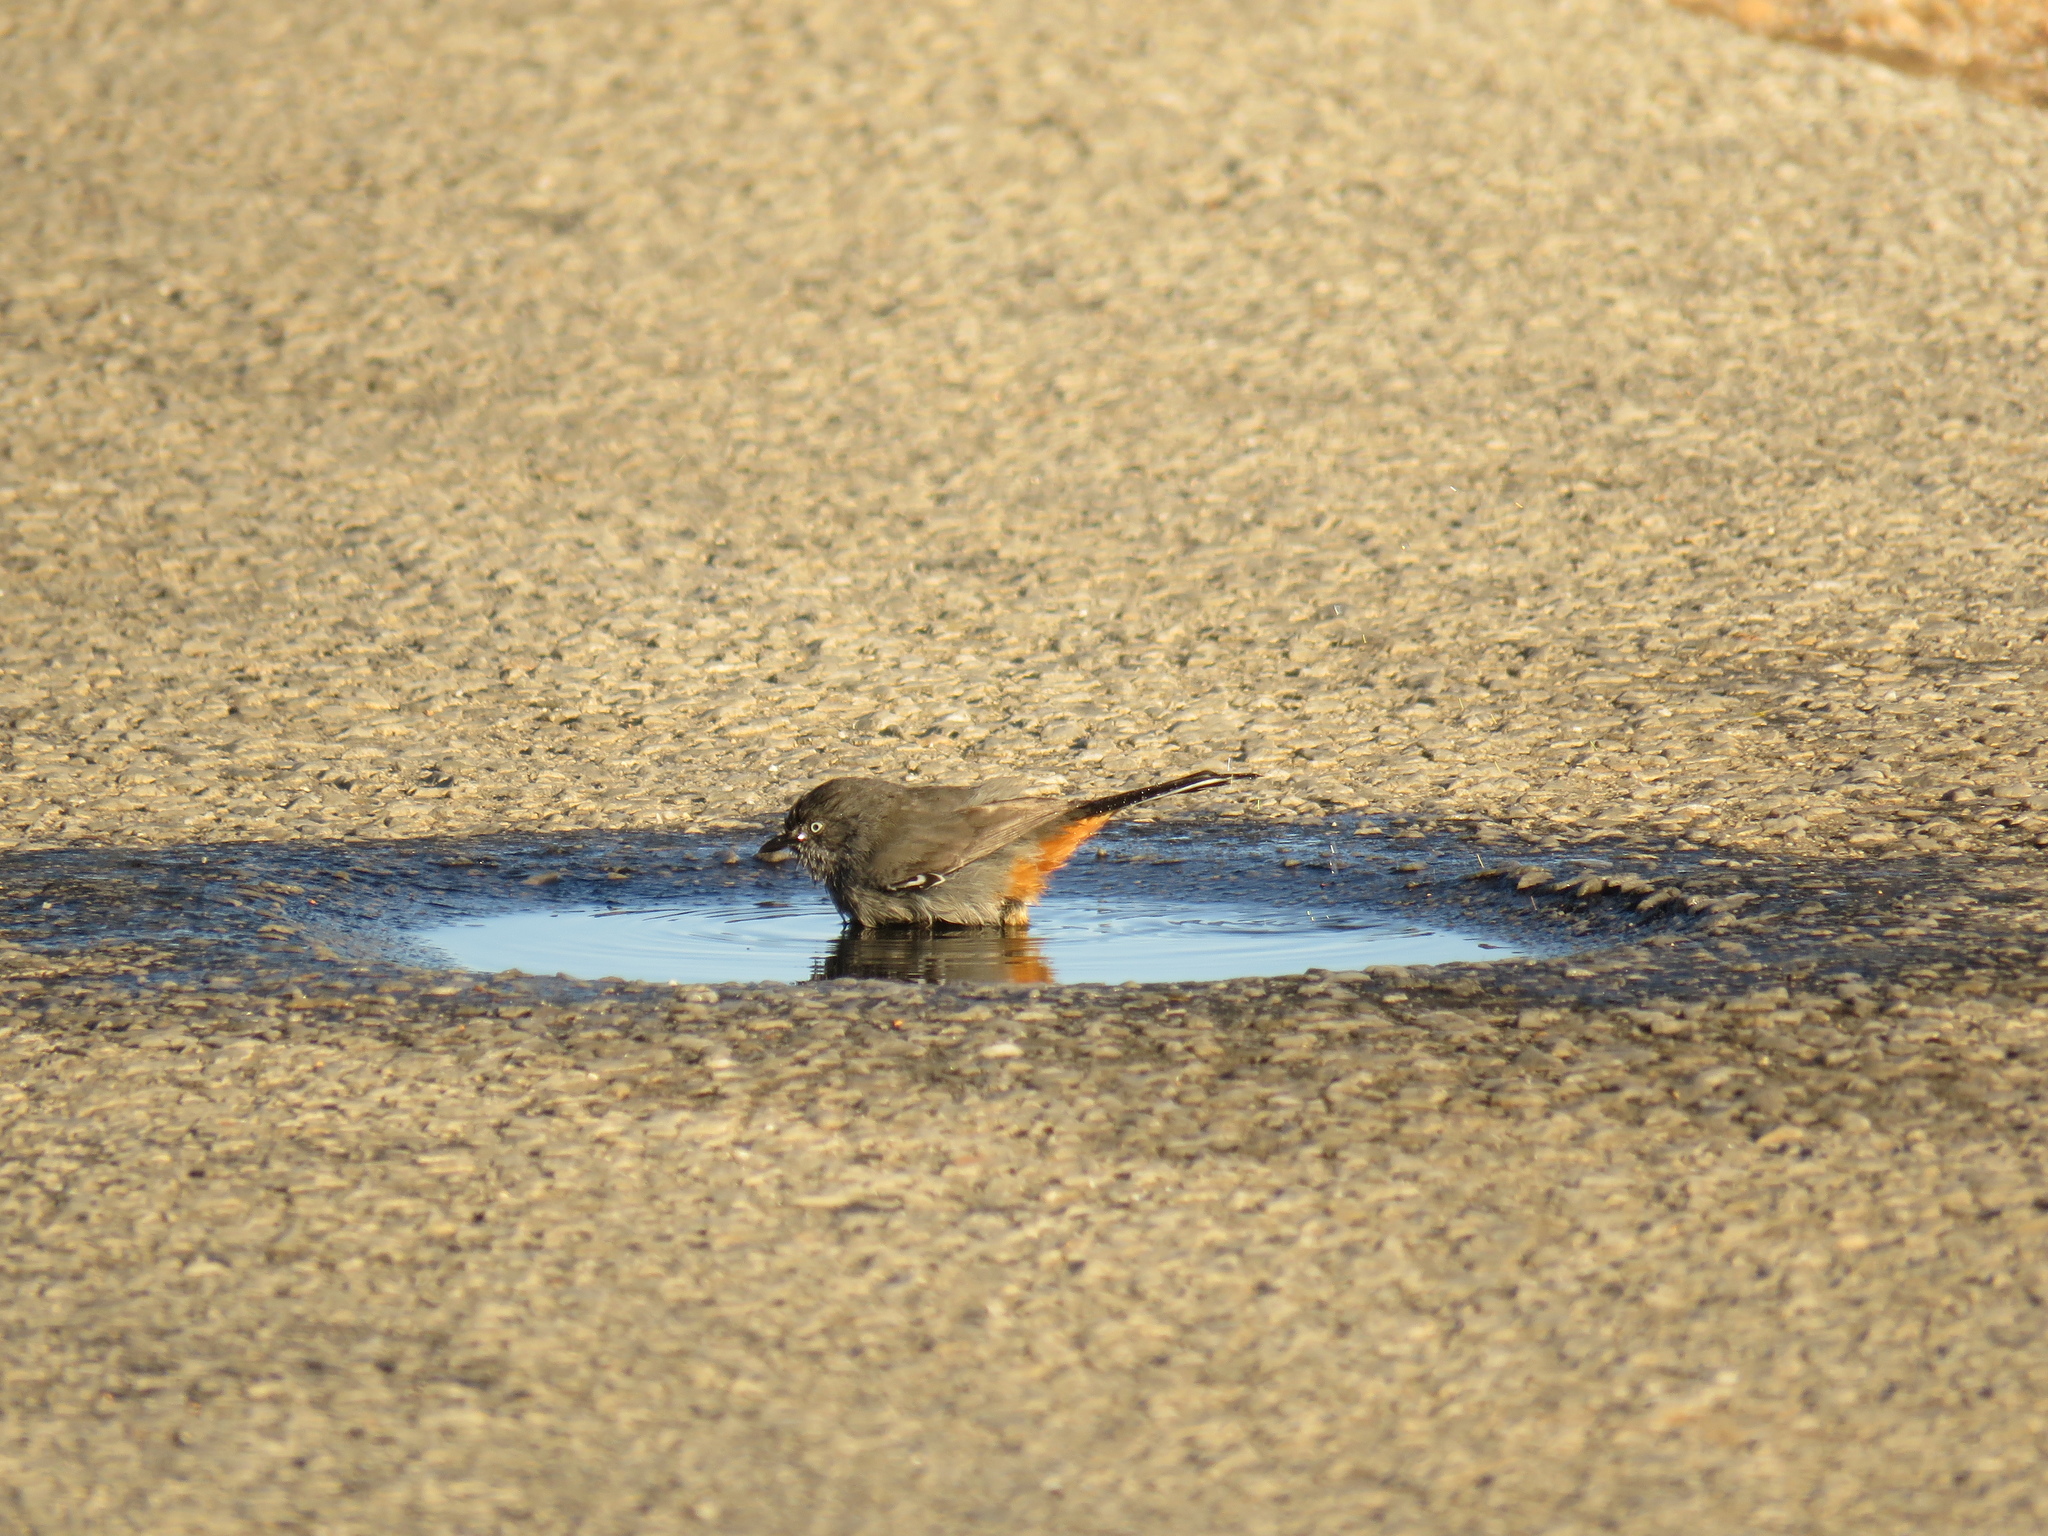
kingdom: Animalia
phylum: Chordata
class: Aves
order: Passeriformes
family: Sylviidae
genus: Curruca
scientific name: Curruca subcoerulea
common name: Chestnut-vented warbler
